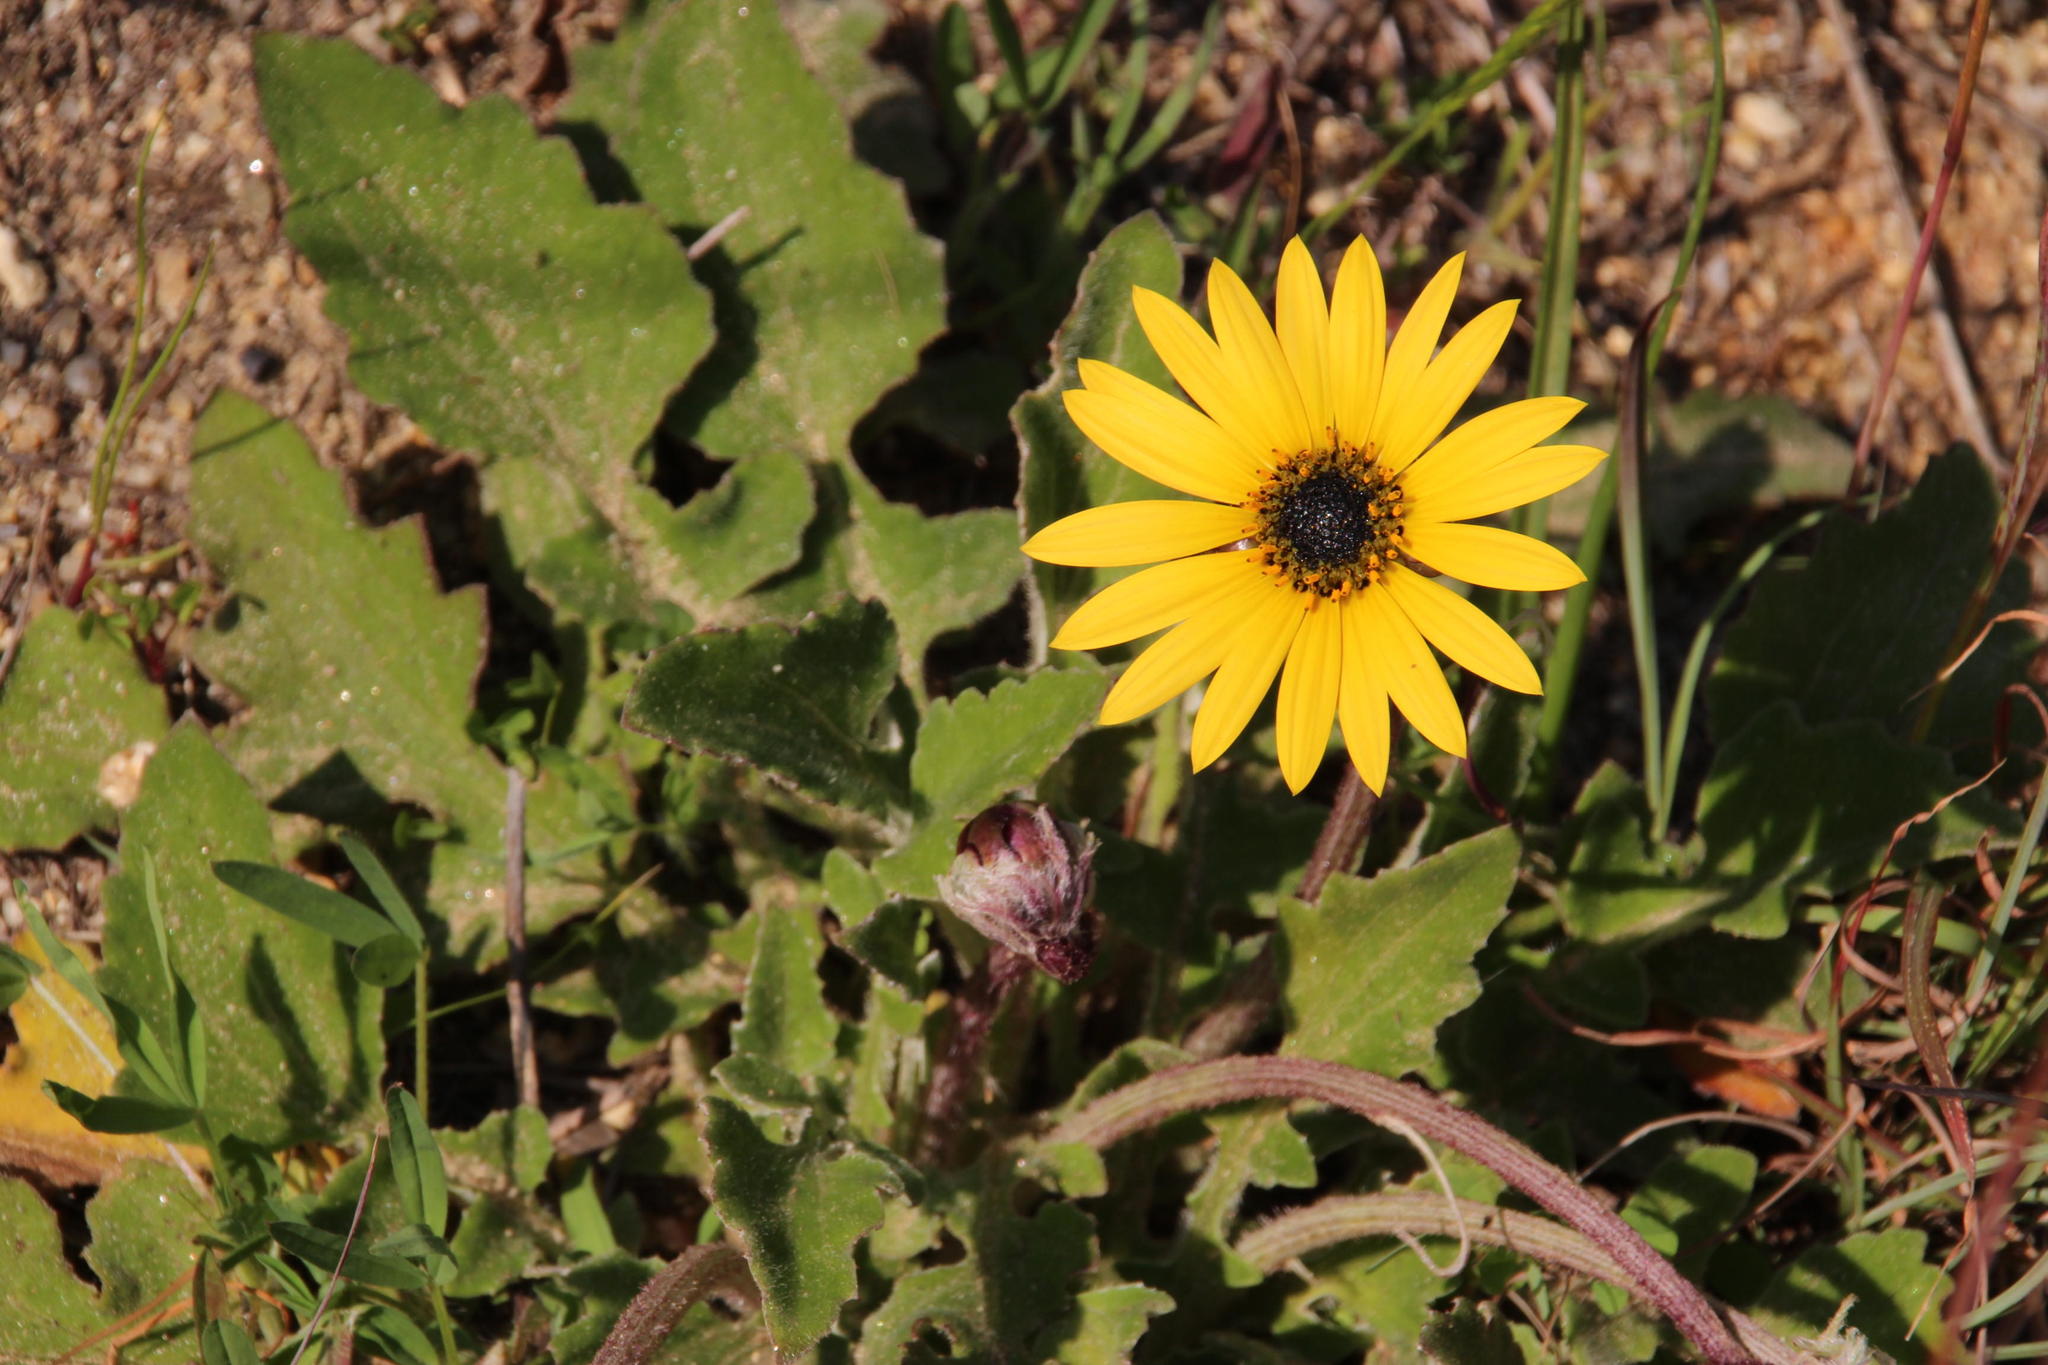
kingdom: Plantae
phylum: Tracheophyta
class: Magnoliopsida
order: Asterales
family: Asteraceae
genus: Arctotheca
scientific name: Arctotheca calendula
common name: Capeweed
